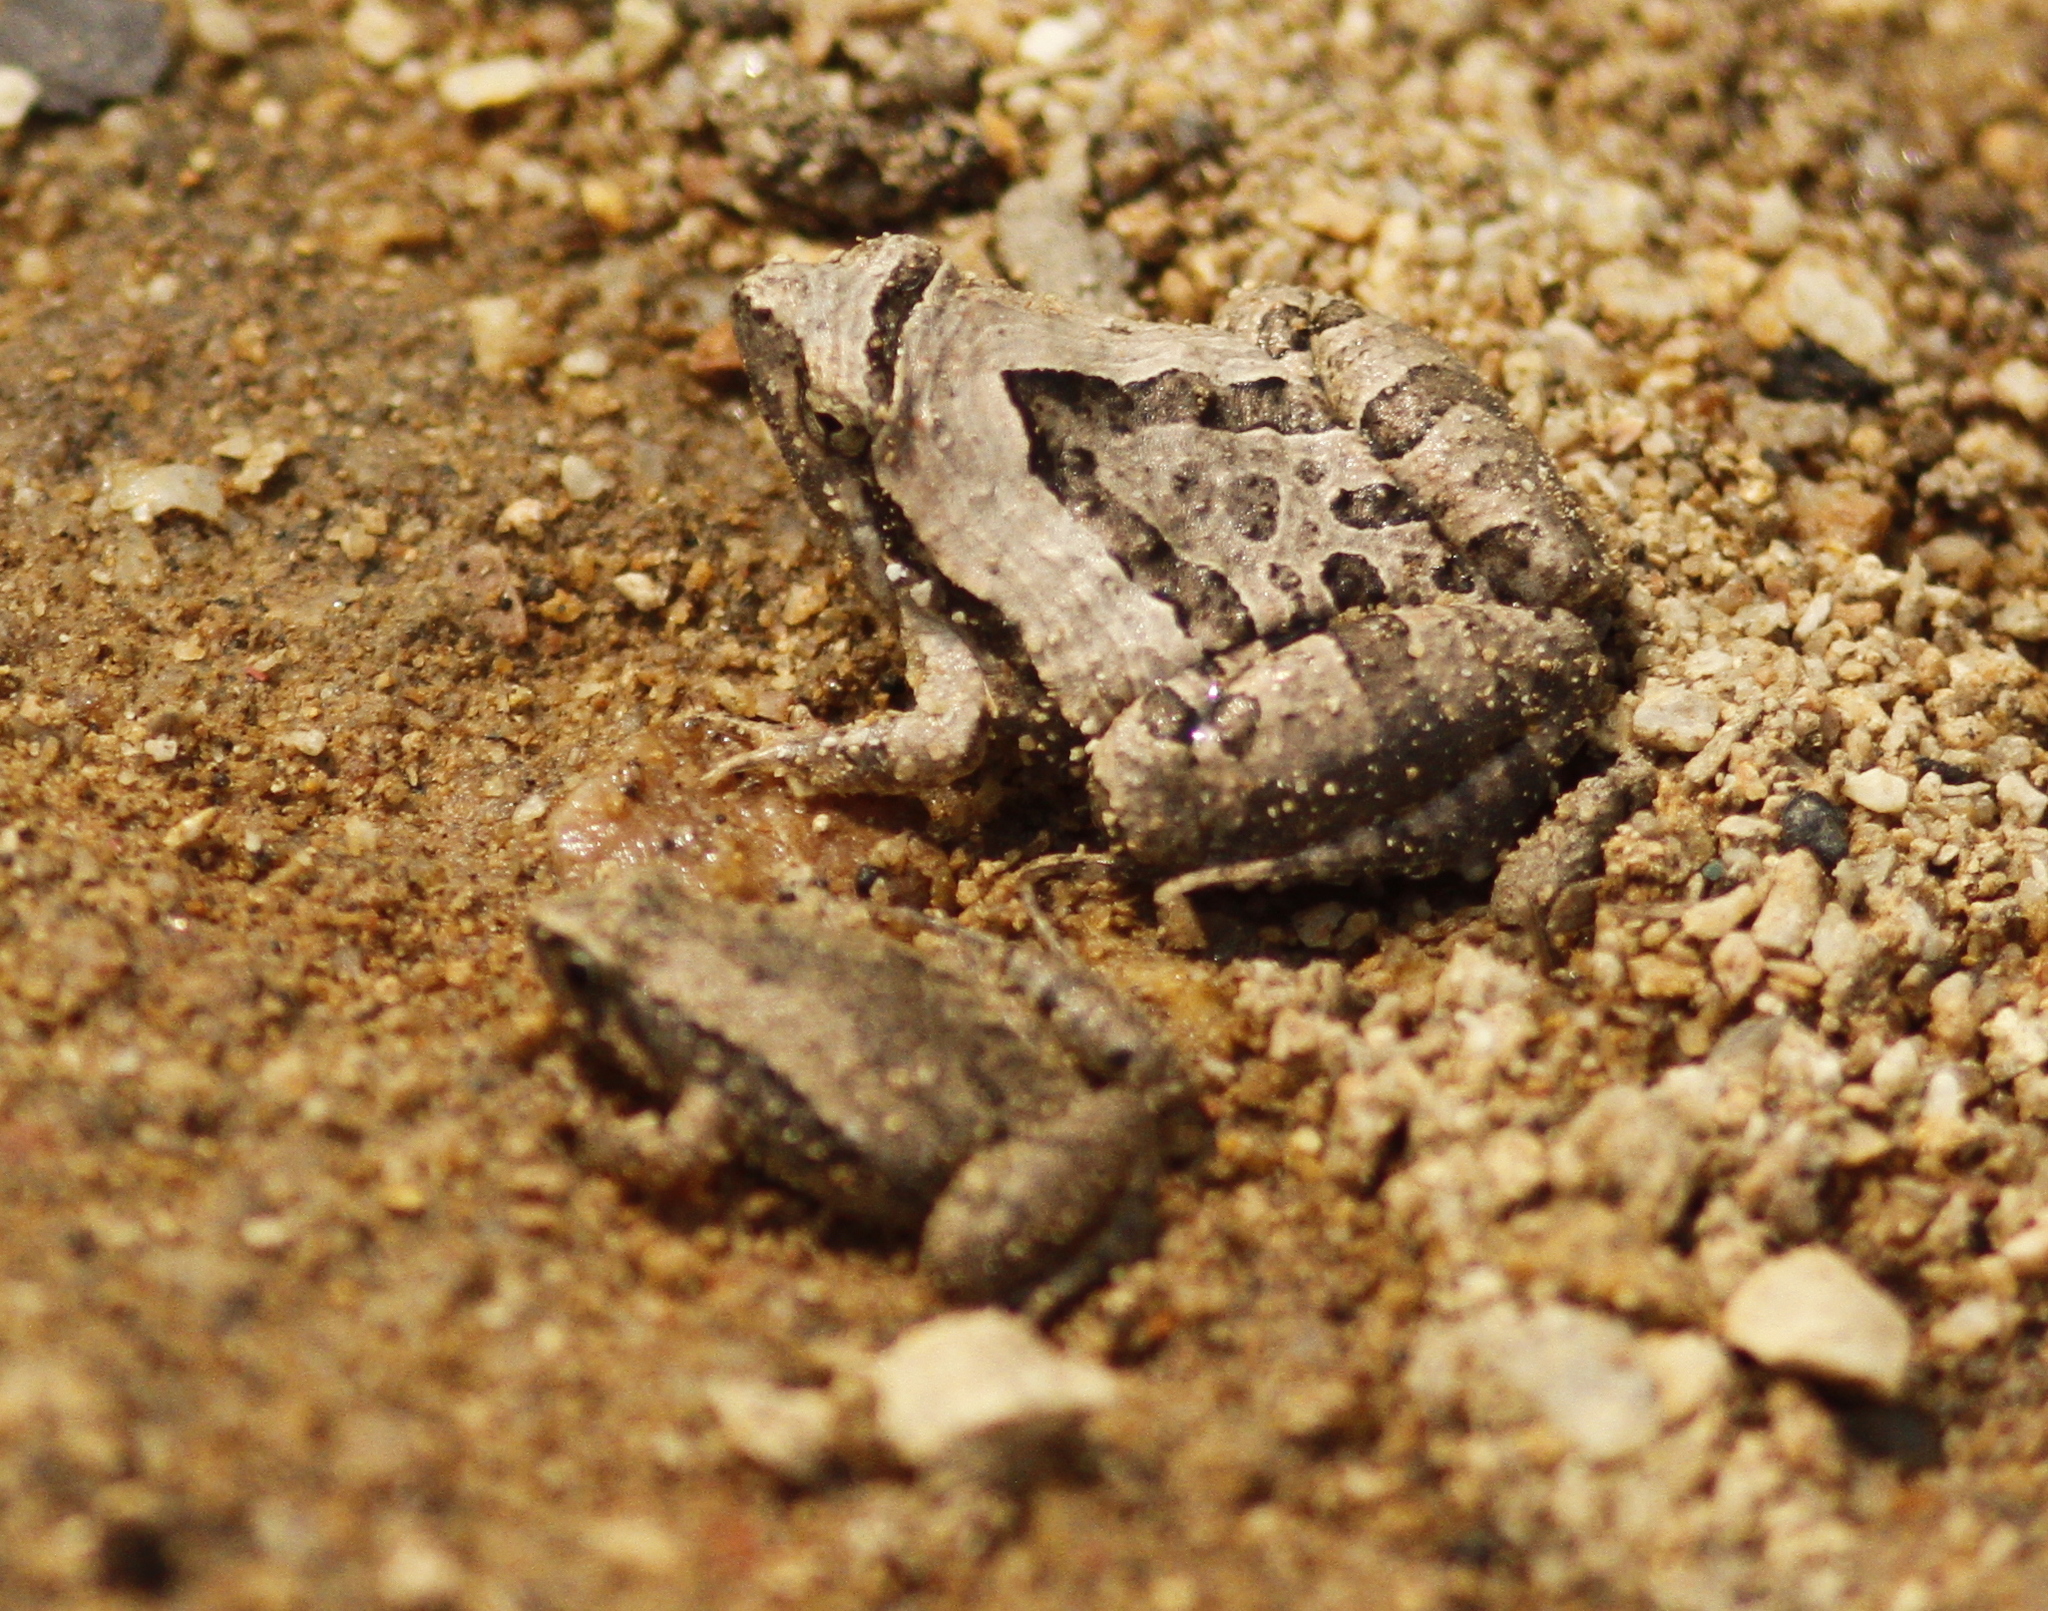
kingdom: Animalia
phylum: Chordata
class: Amphibia
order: Anura
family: Microhylidae
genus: Microhyla
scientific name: Microhyla pulchra
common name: Beautiful pygmy frog
